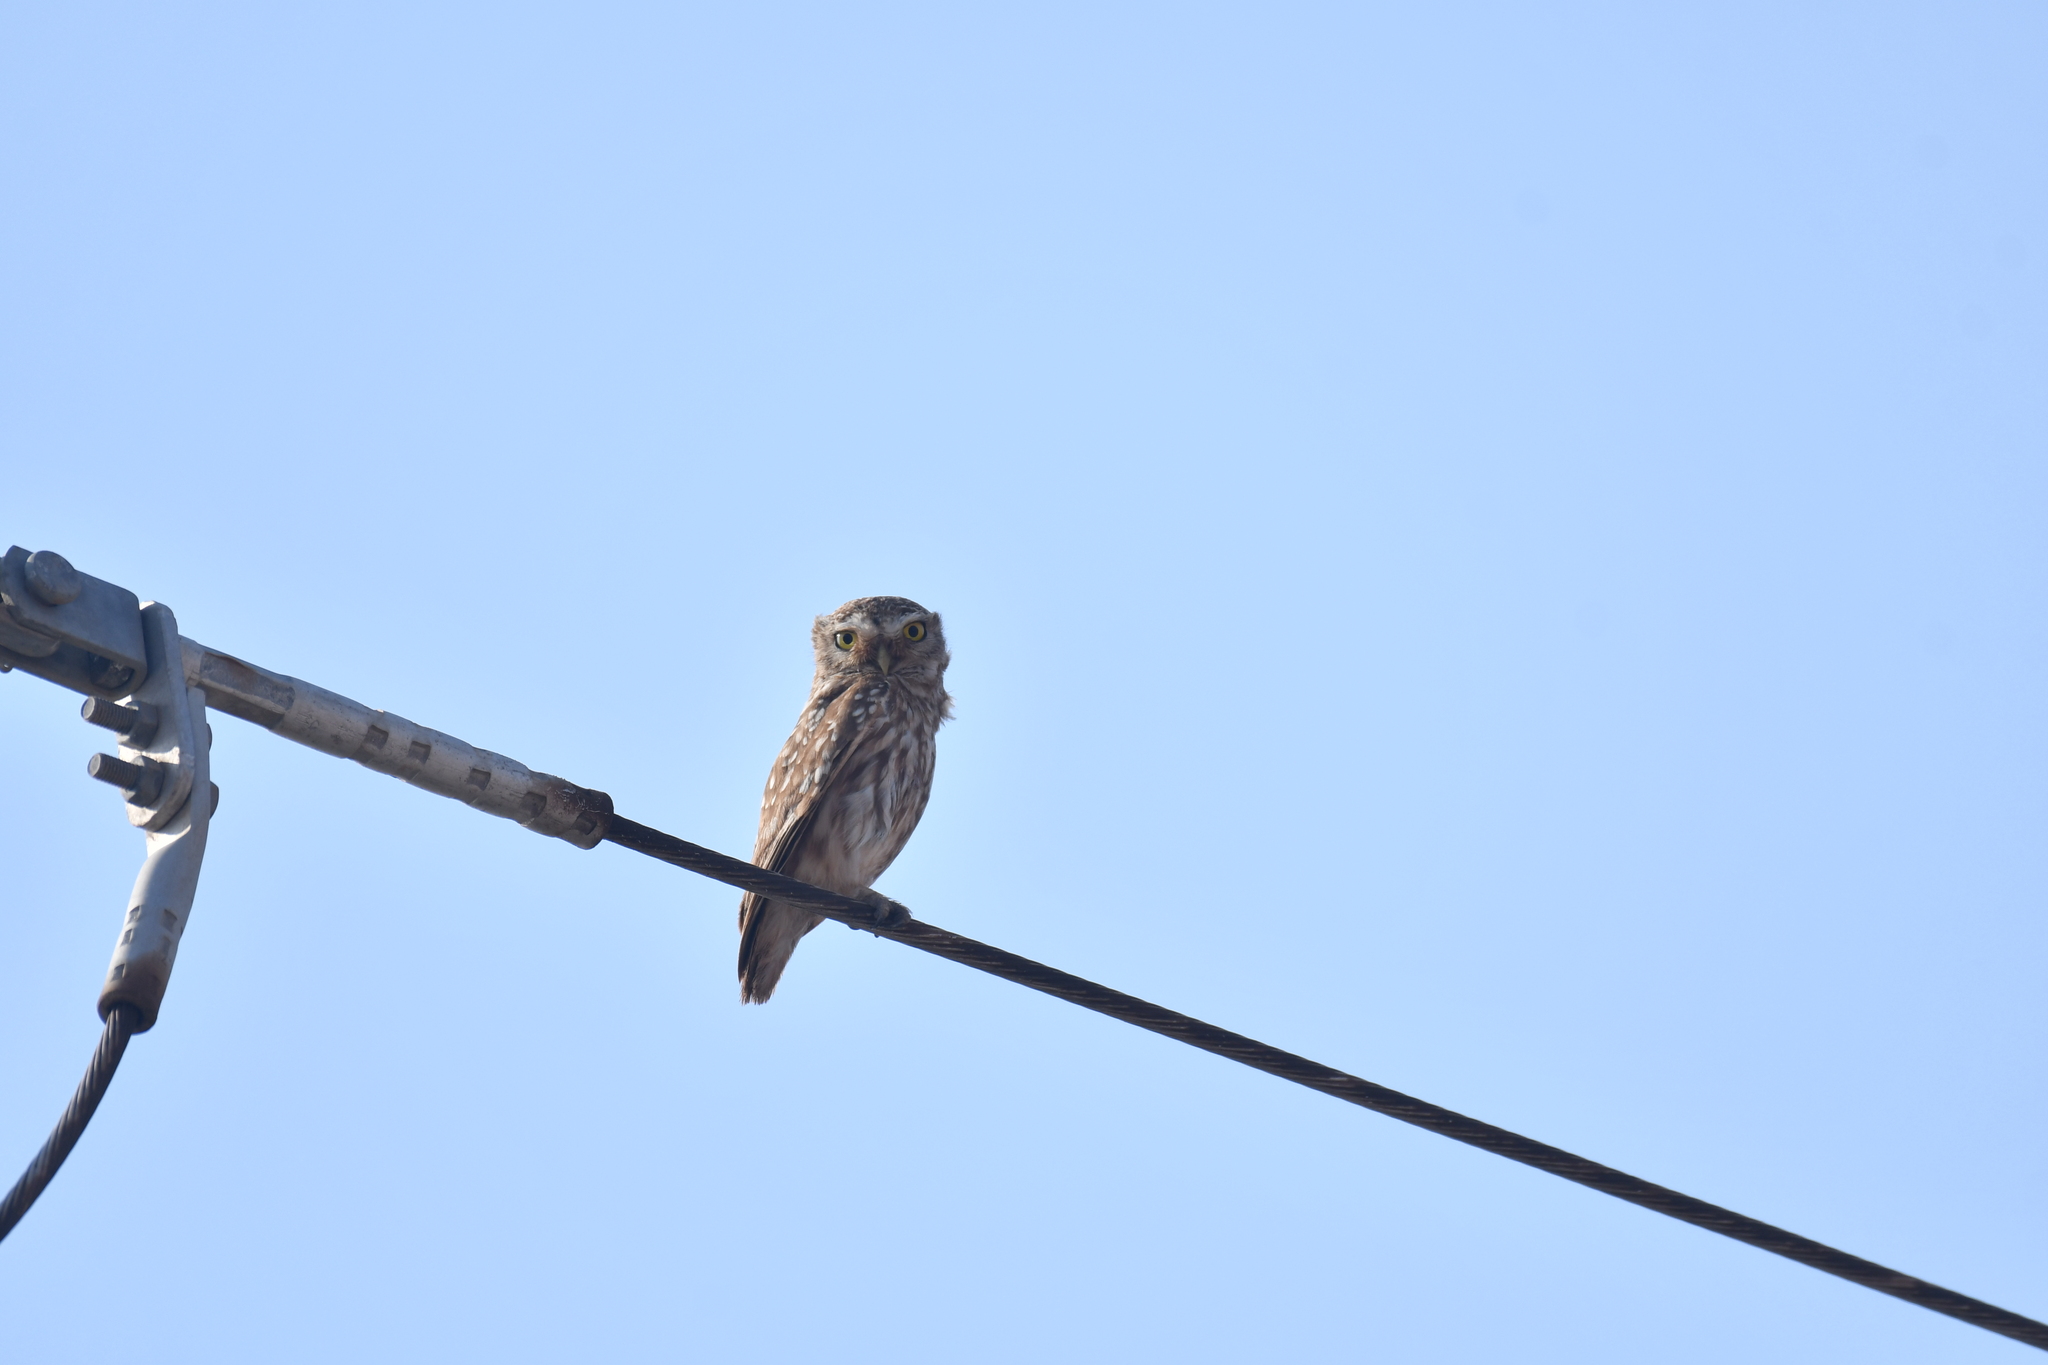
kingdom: Animalia
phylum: Chordata
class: Aves
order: Strigiformes
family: Strigidae
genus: Athene
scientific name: Athene noctua
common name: Little owl
